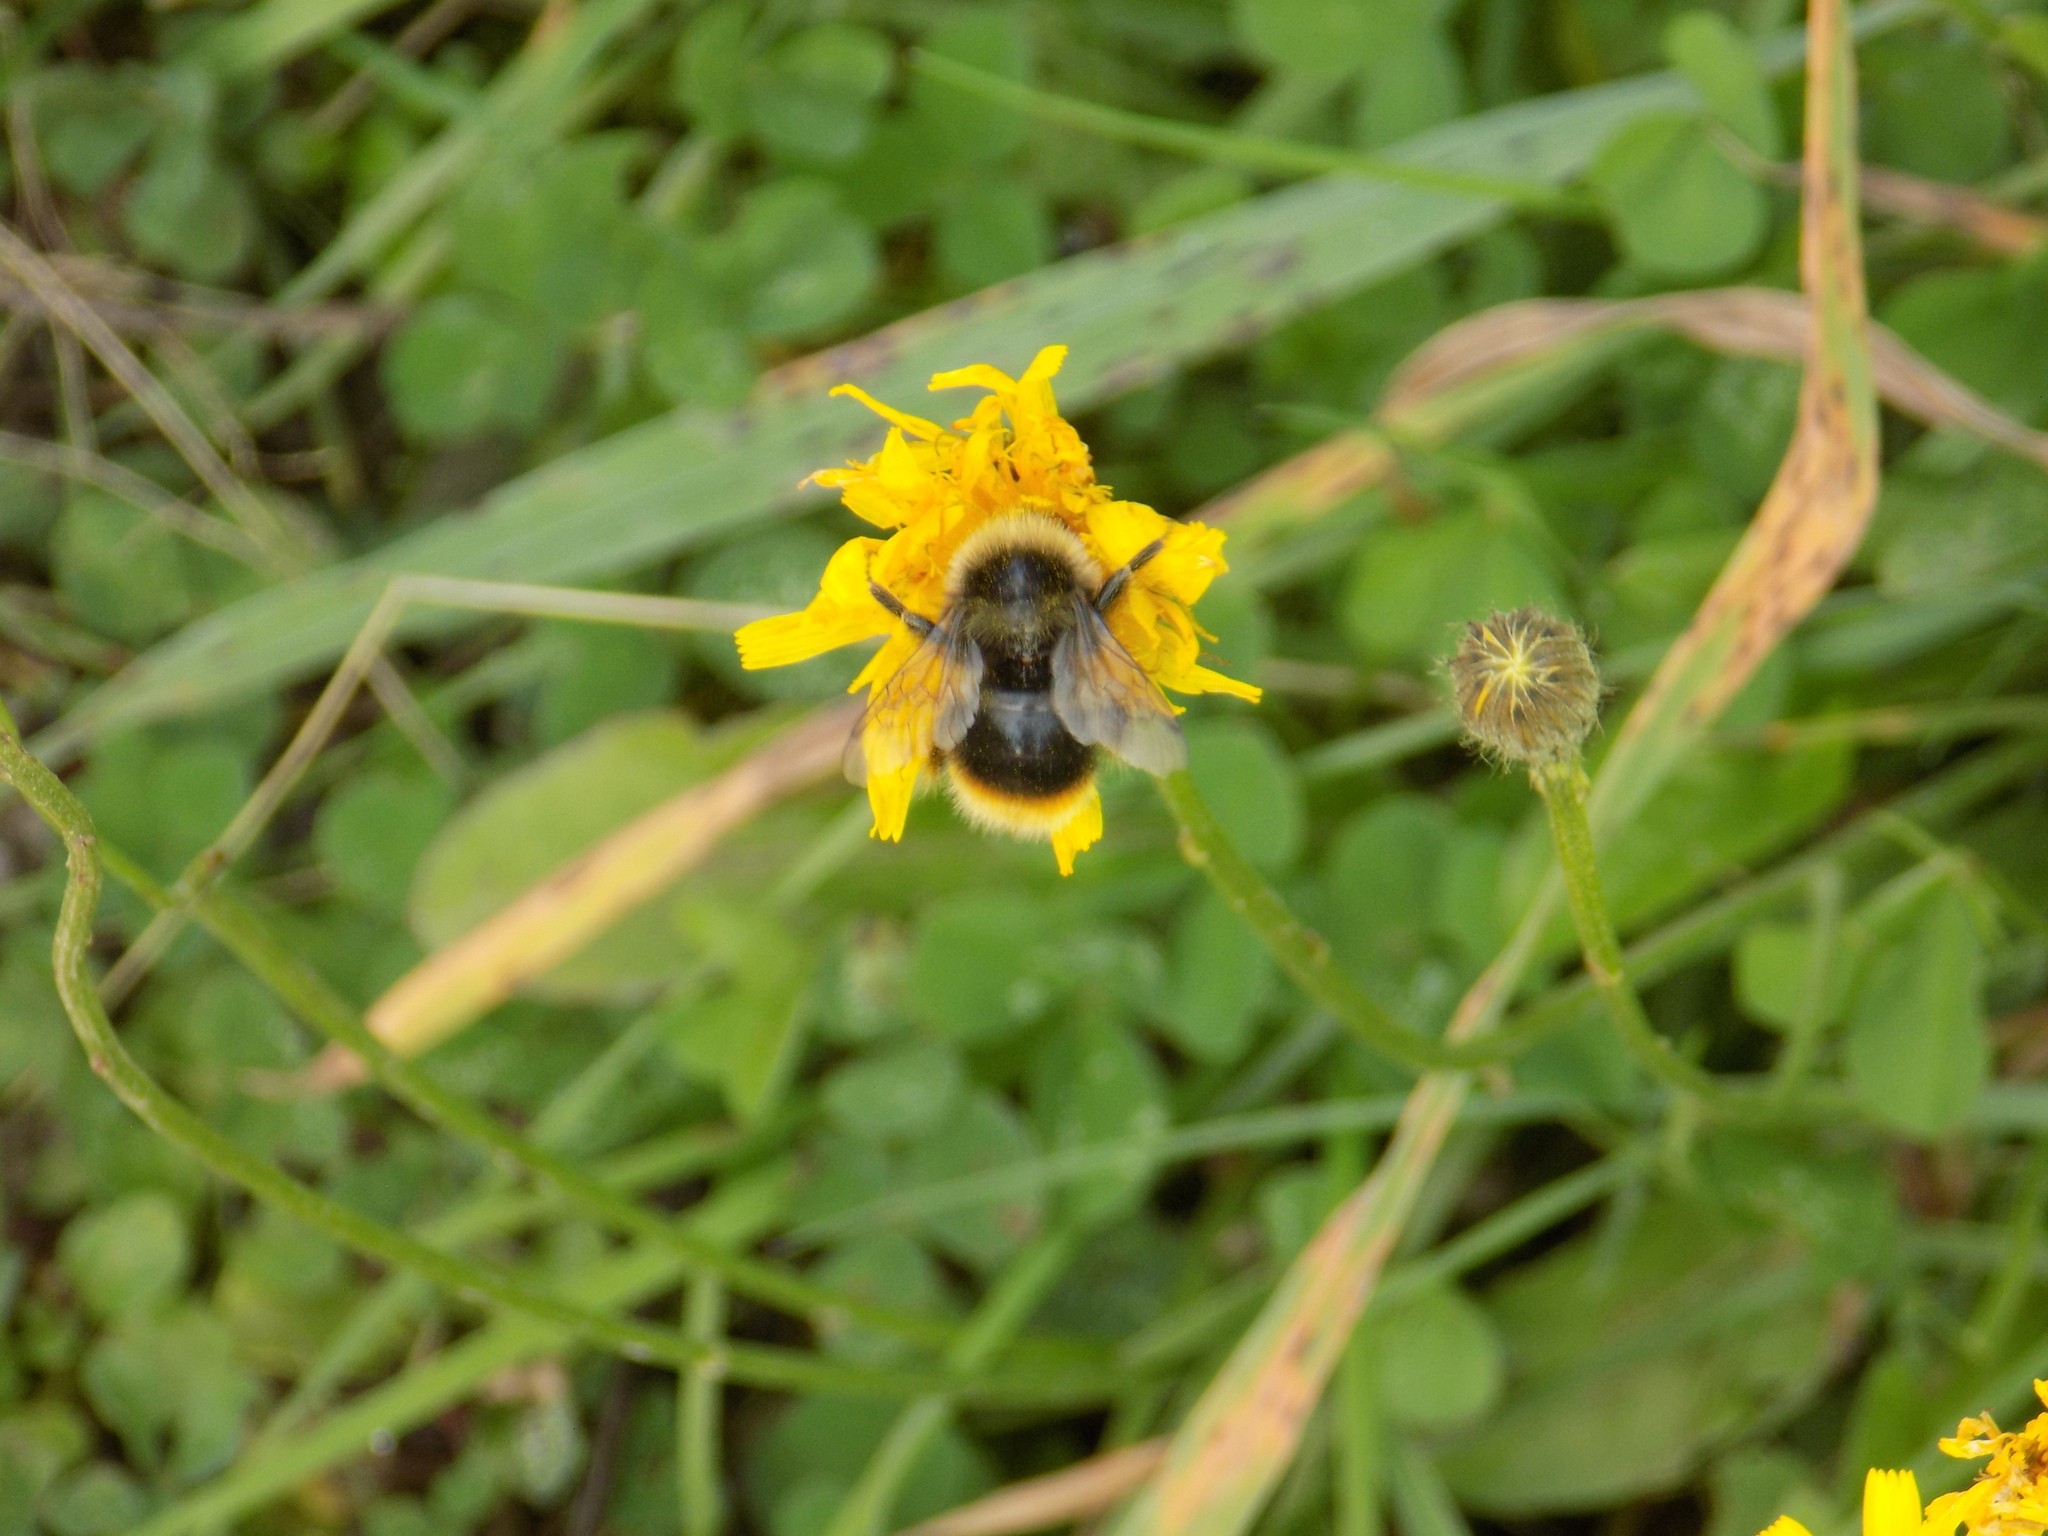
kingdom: Animalia
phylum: Arthropoda
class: Insecta
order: Hymenoptera
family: Apidae
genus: Bombus
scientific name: Bombus
